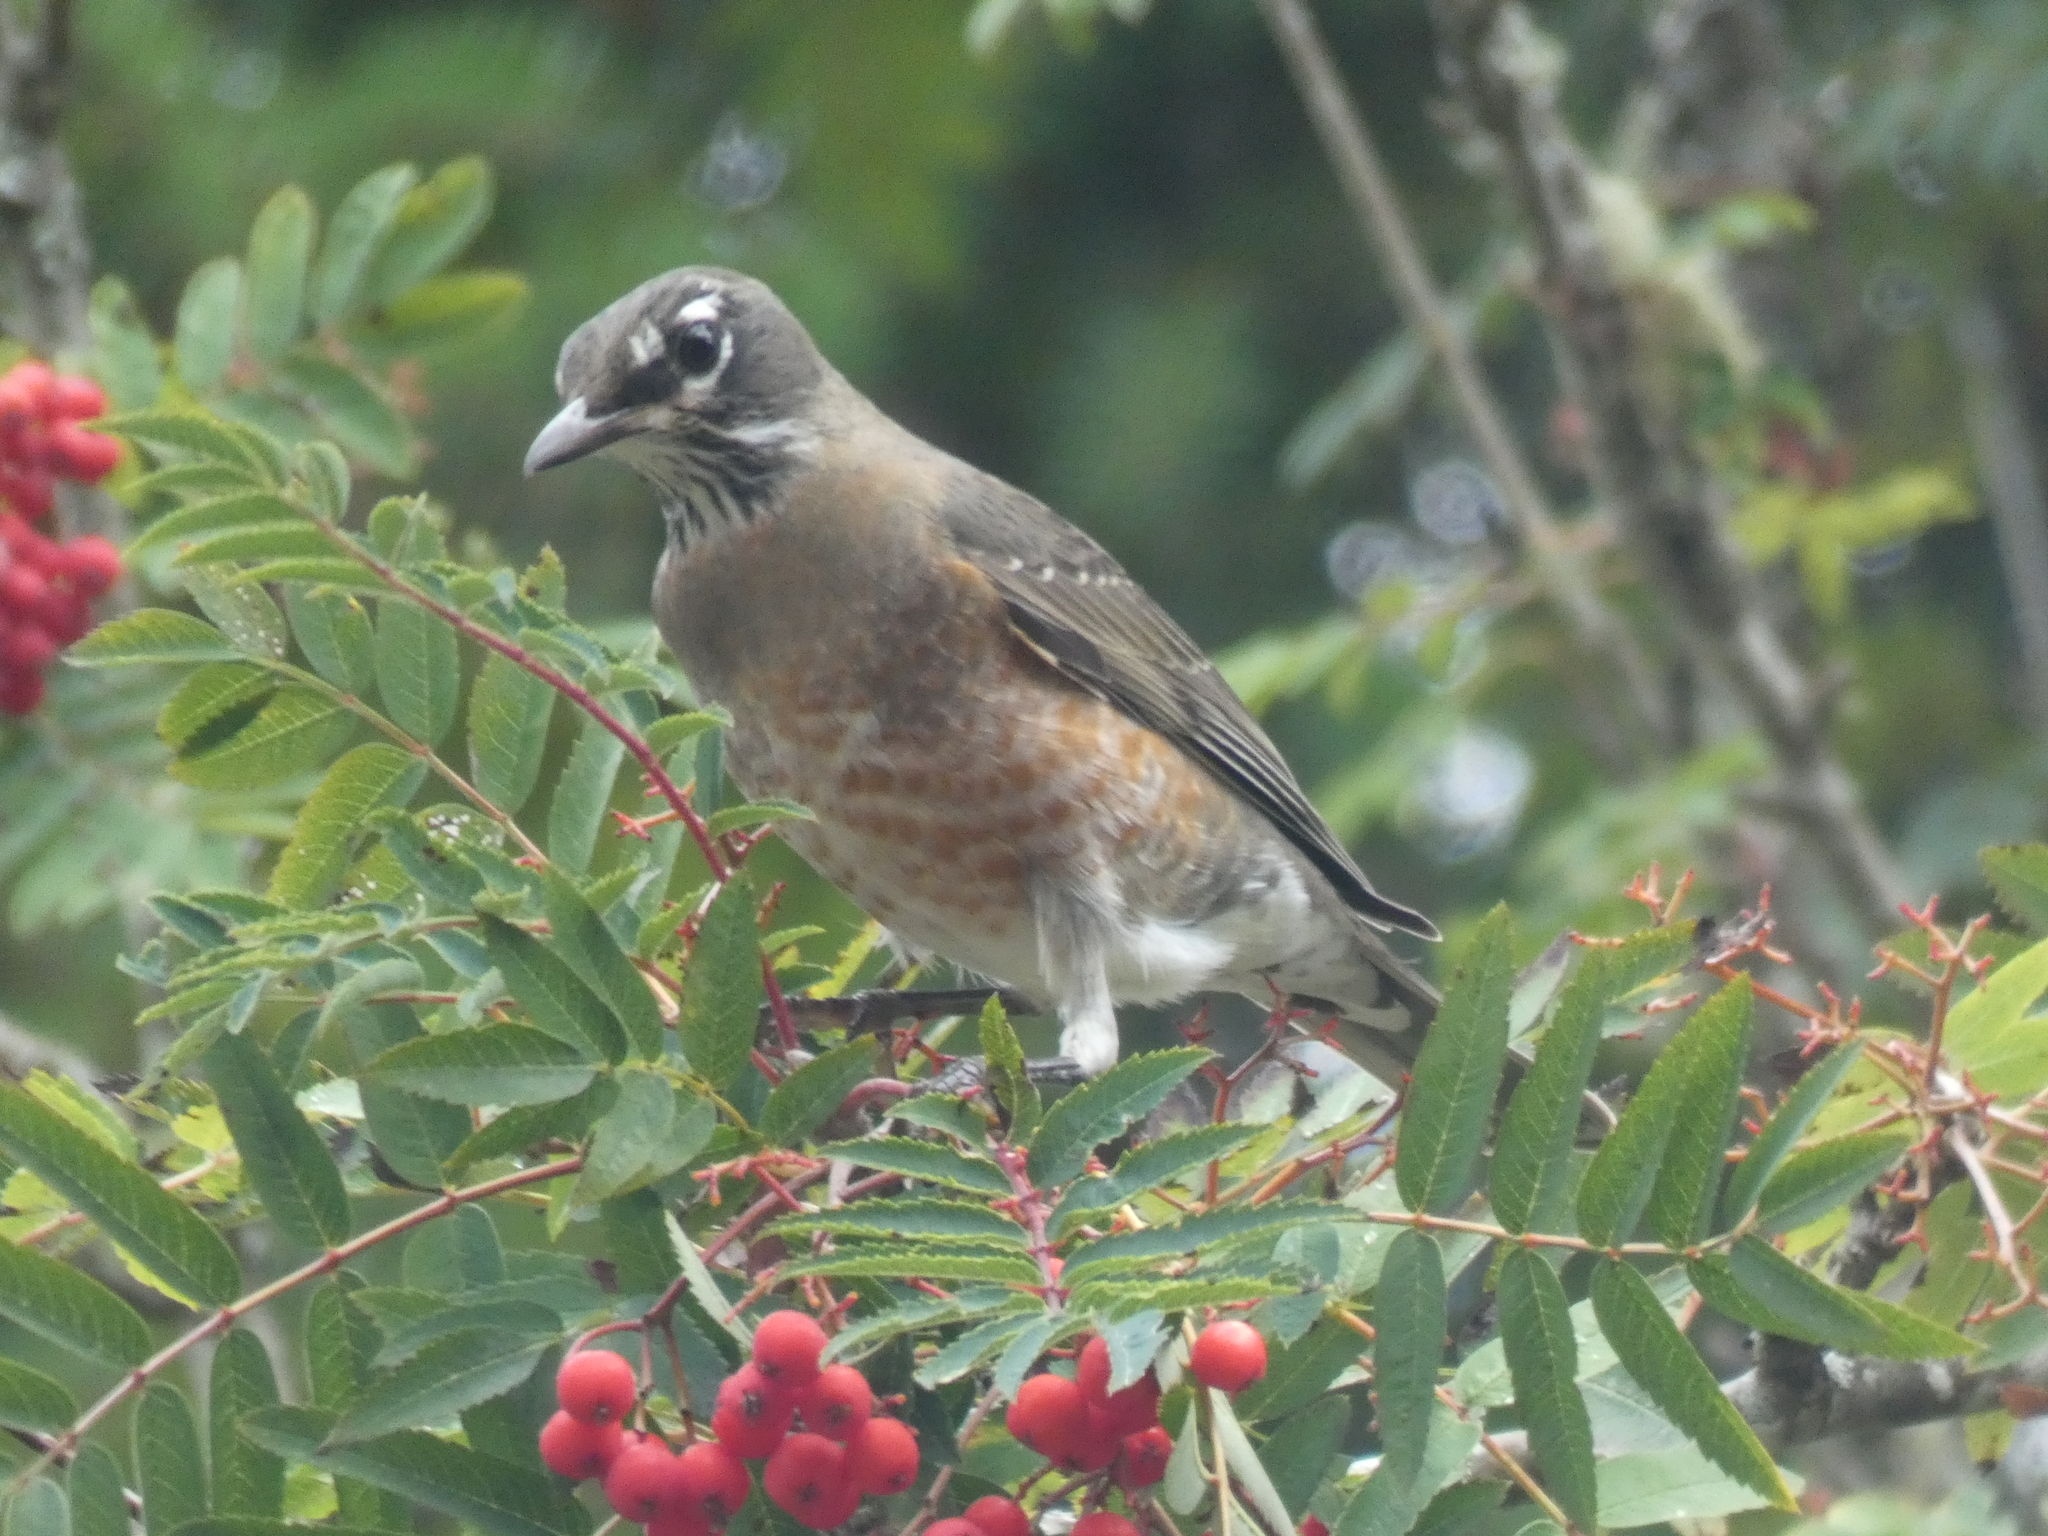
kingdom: Animalia
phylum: Chordata
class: Aves
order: Passeriformes
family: Turdidae
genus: Turdus
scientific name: Turdus migratorius
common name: American robin
